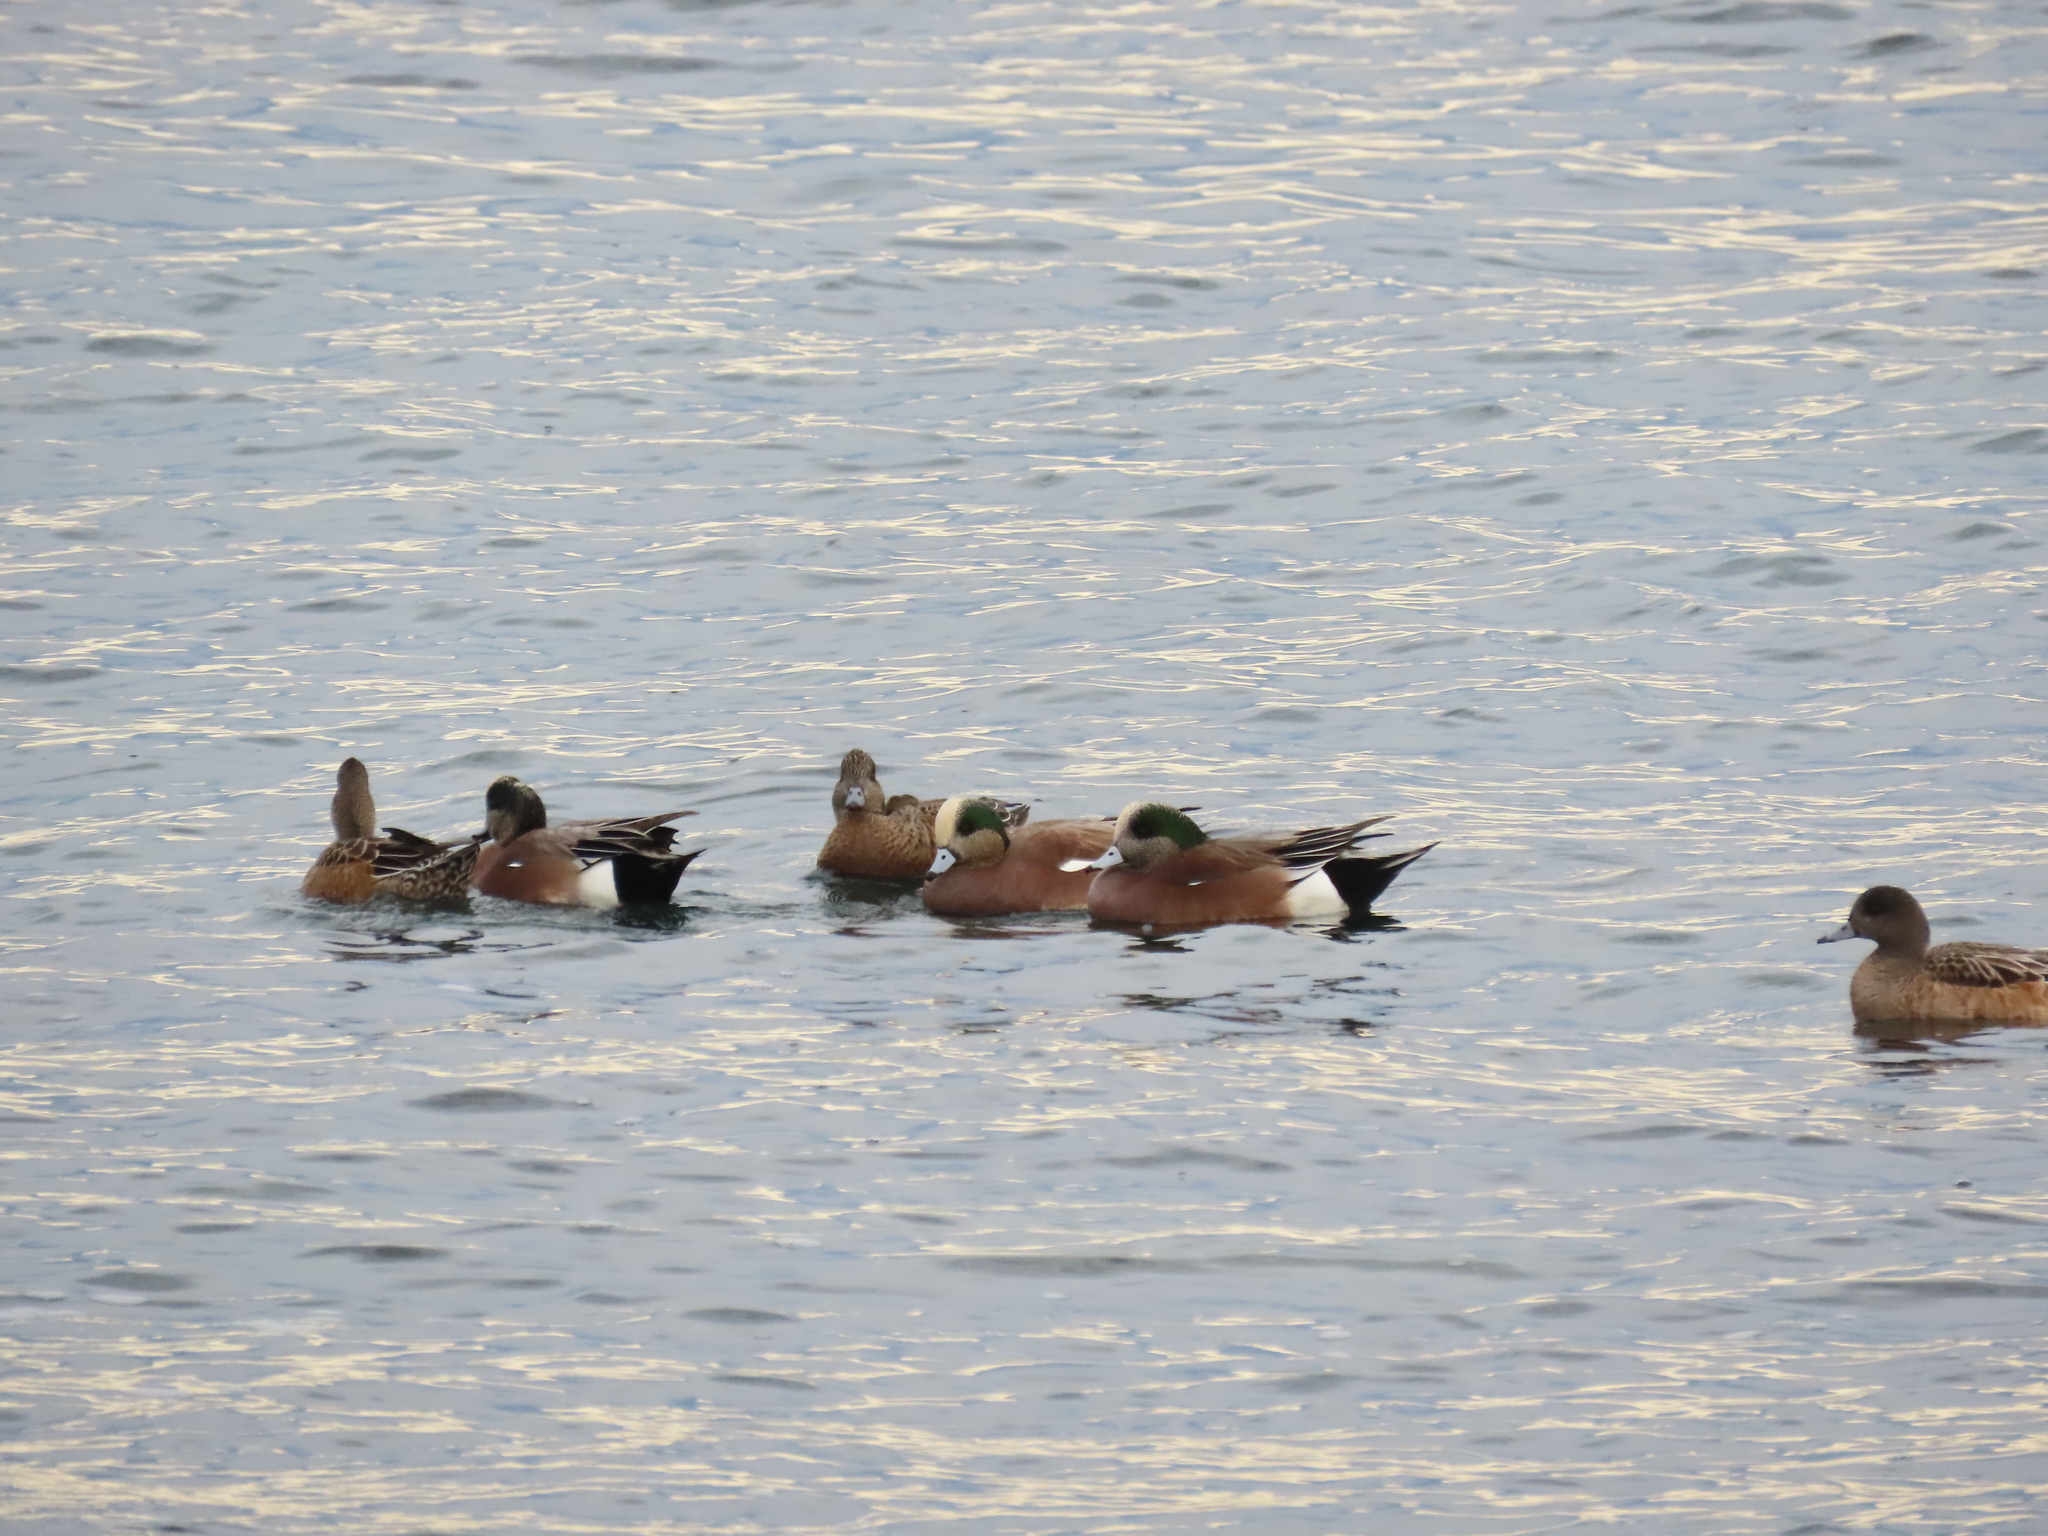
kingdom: Animalia
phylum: Chordata
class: Aves
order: Anseriformes
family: Anatidae
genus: Mareca
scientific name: Mareca americana
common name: American wigeon
